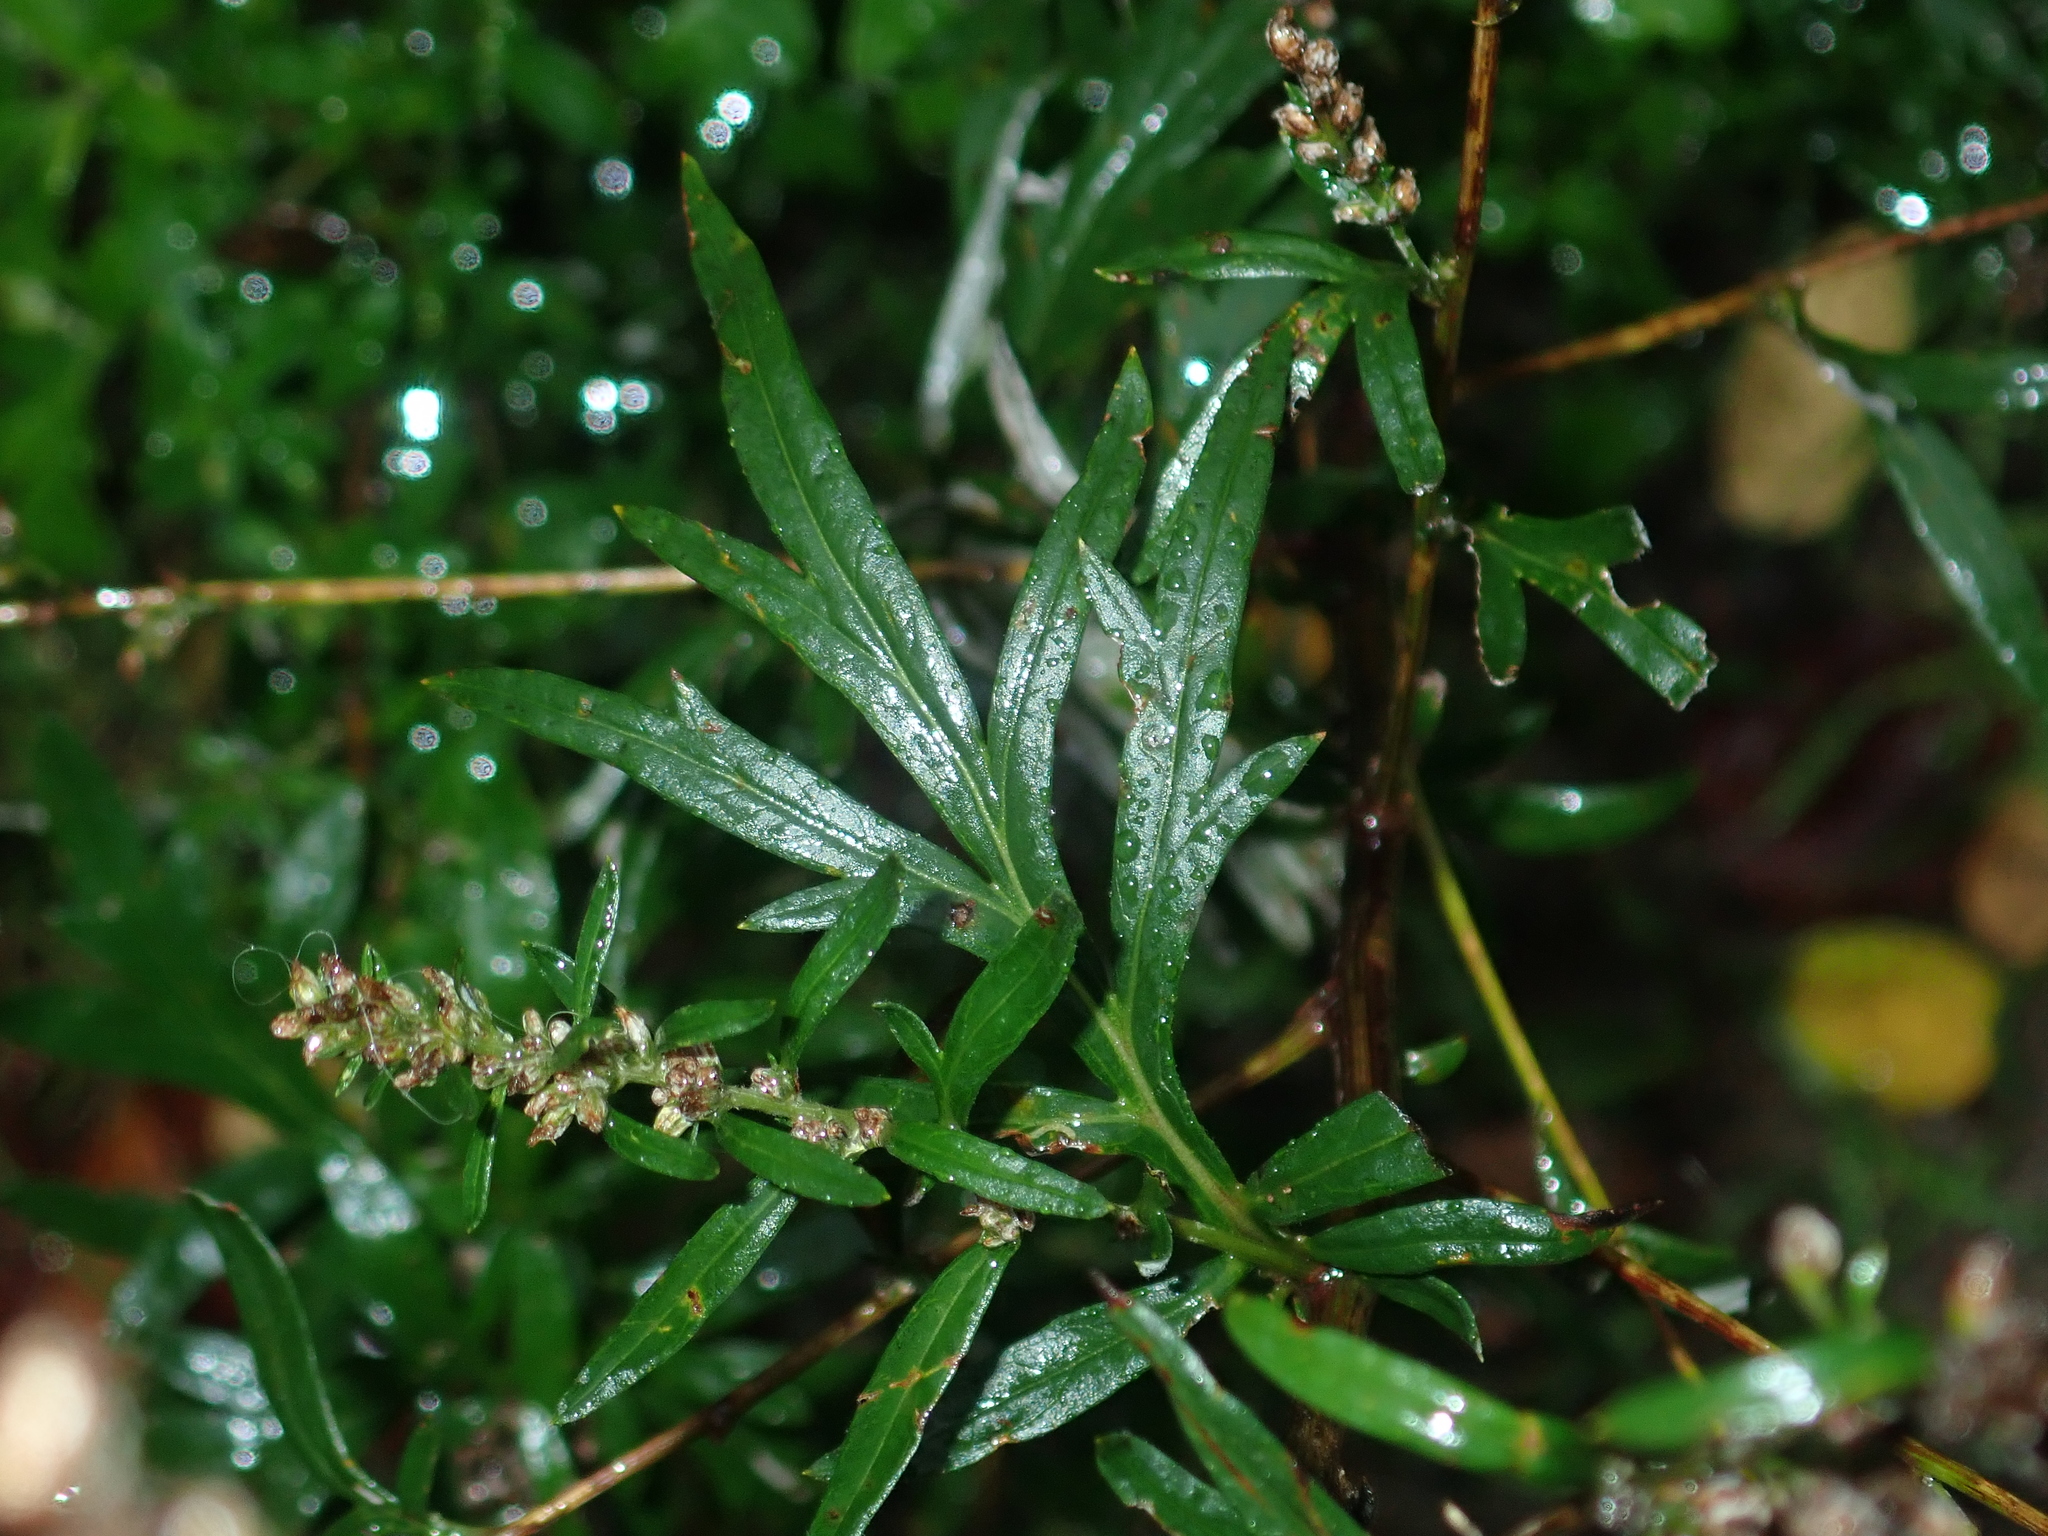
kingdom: Plantae
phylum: Tracheophyta
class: Magnoliopsida
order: Asterales
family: Asteraceae
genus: Artemisia
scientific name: Artemisia vulgaris
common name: Mugwort
